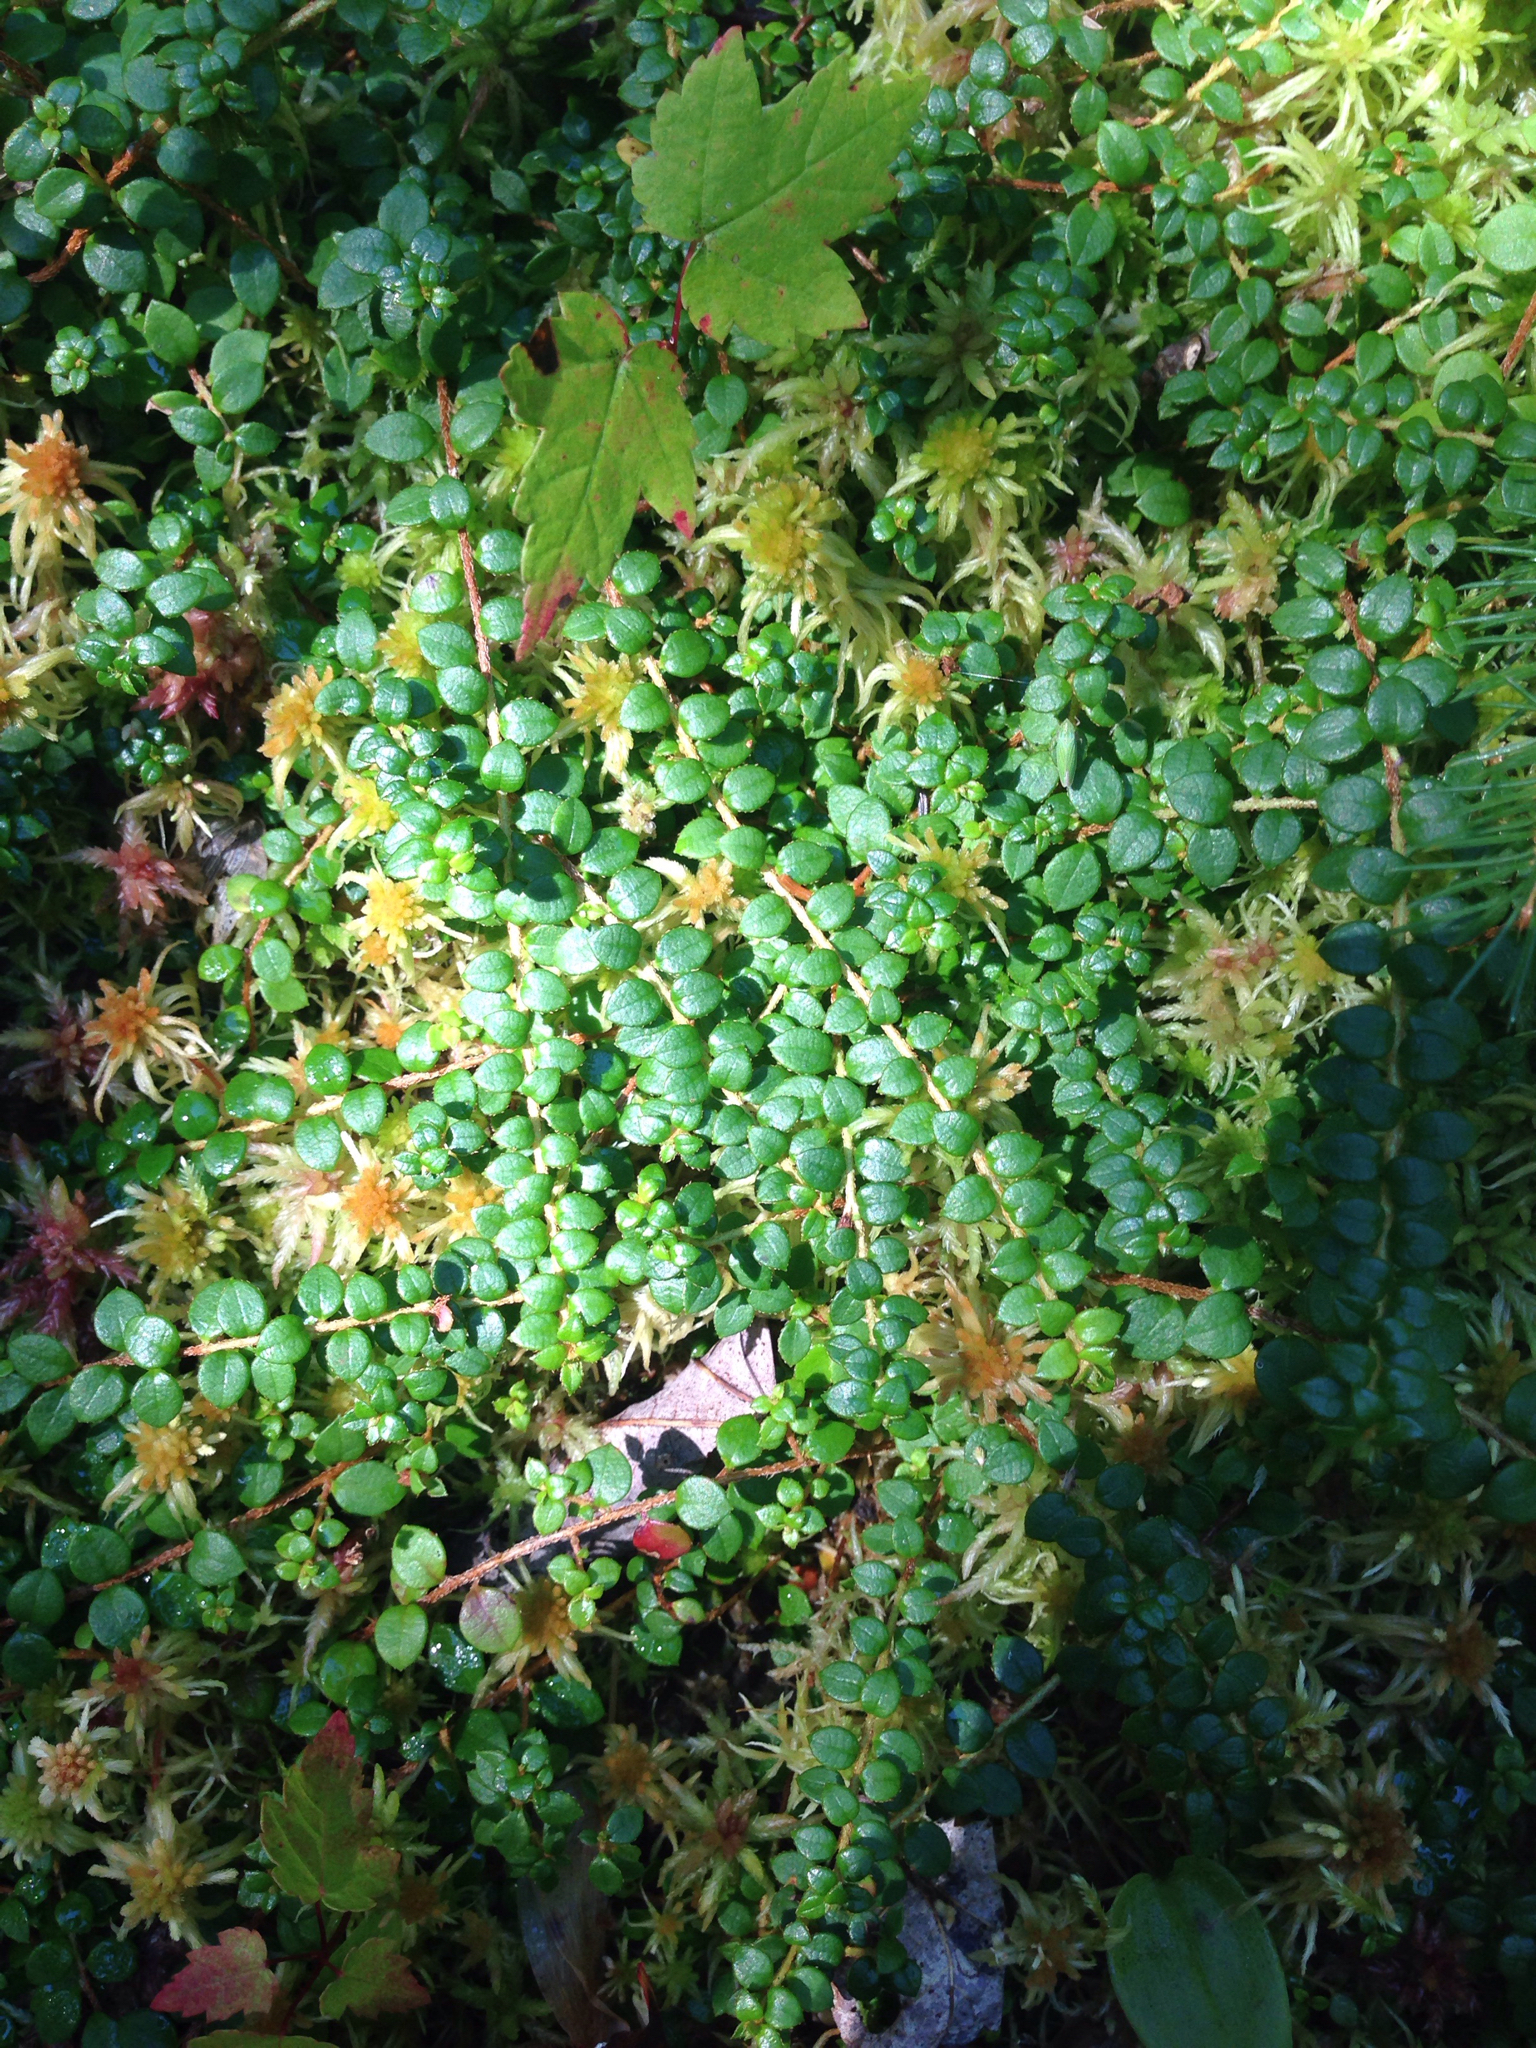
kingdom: Plantae
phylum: Tracheophyta
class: Magnoliopsida
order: Ericales
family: Ericaceae
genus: Gaultheria
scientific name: Gaultheria hispidula
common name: Cancer wintergreen
